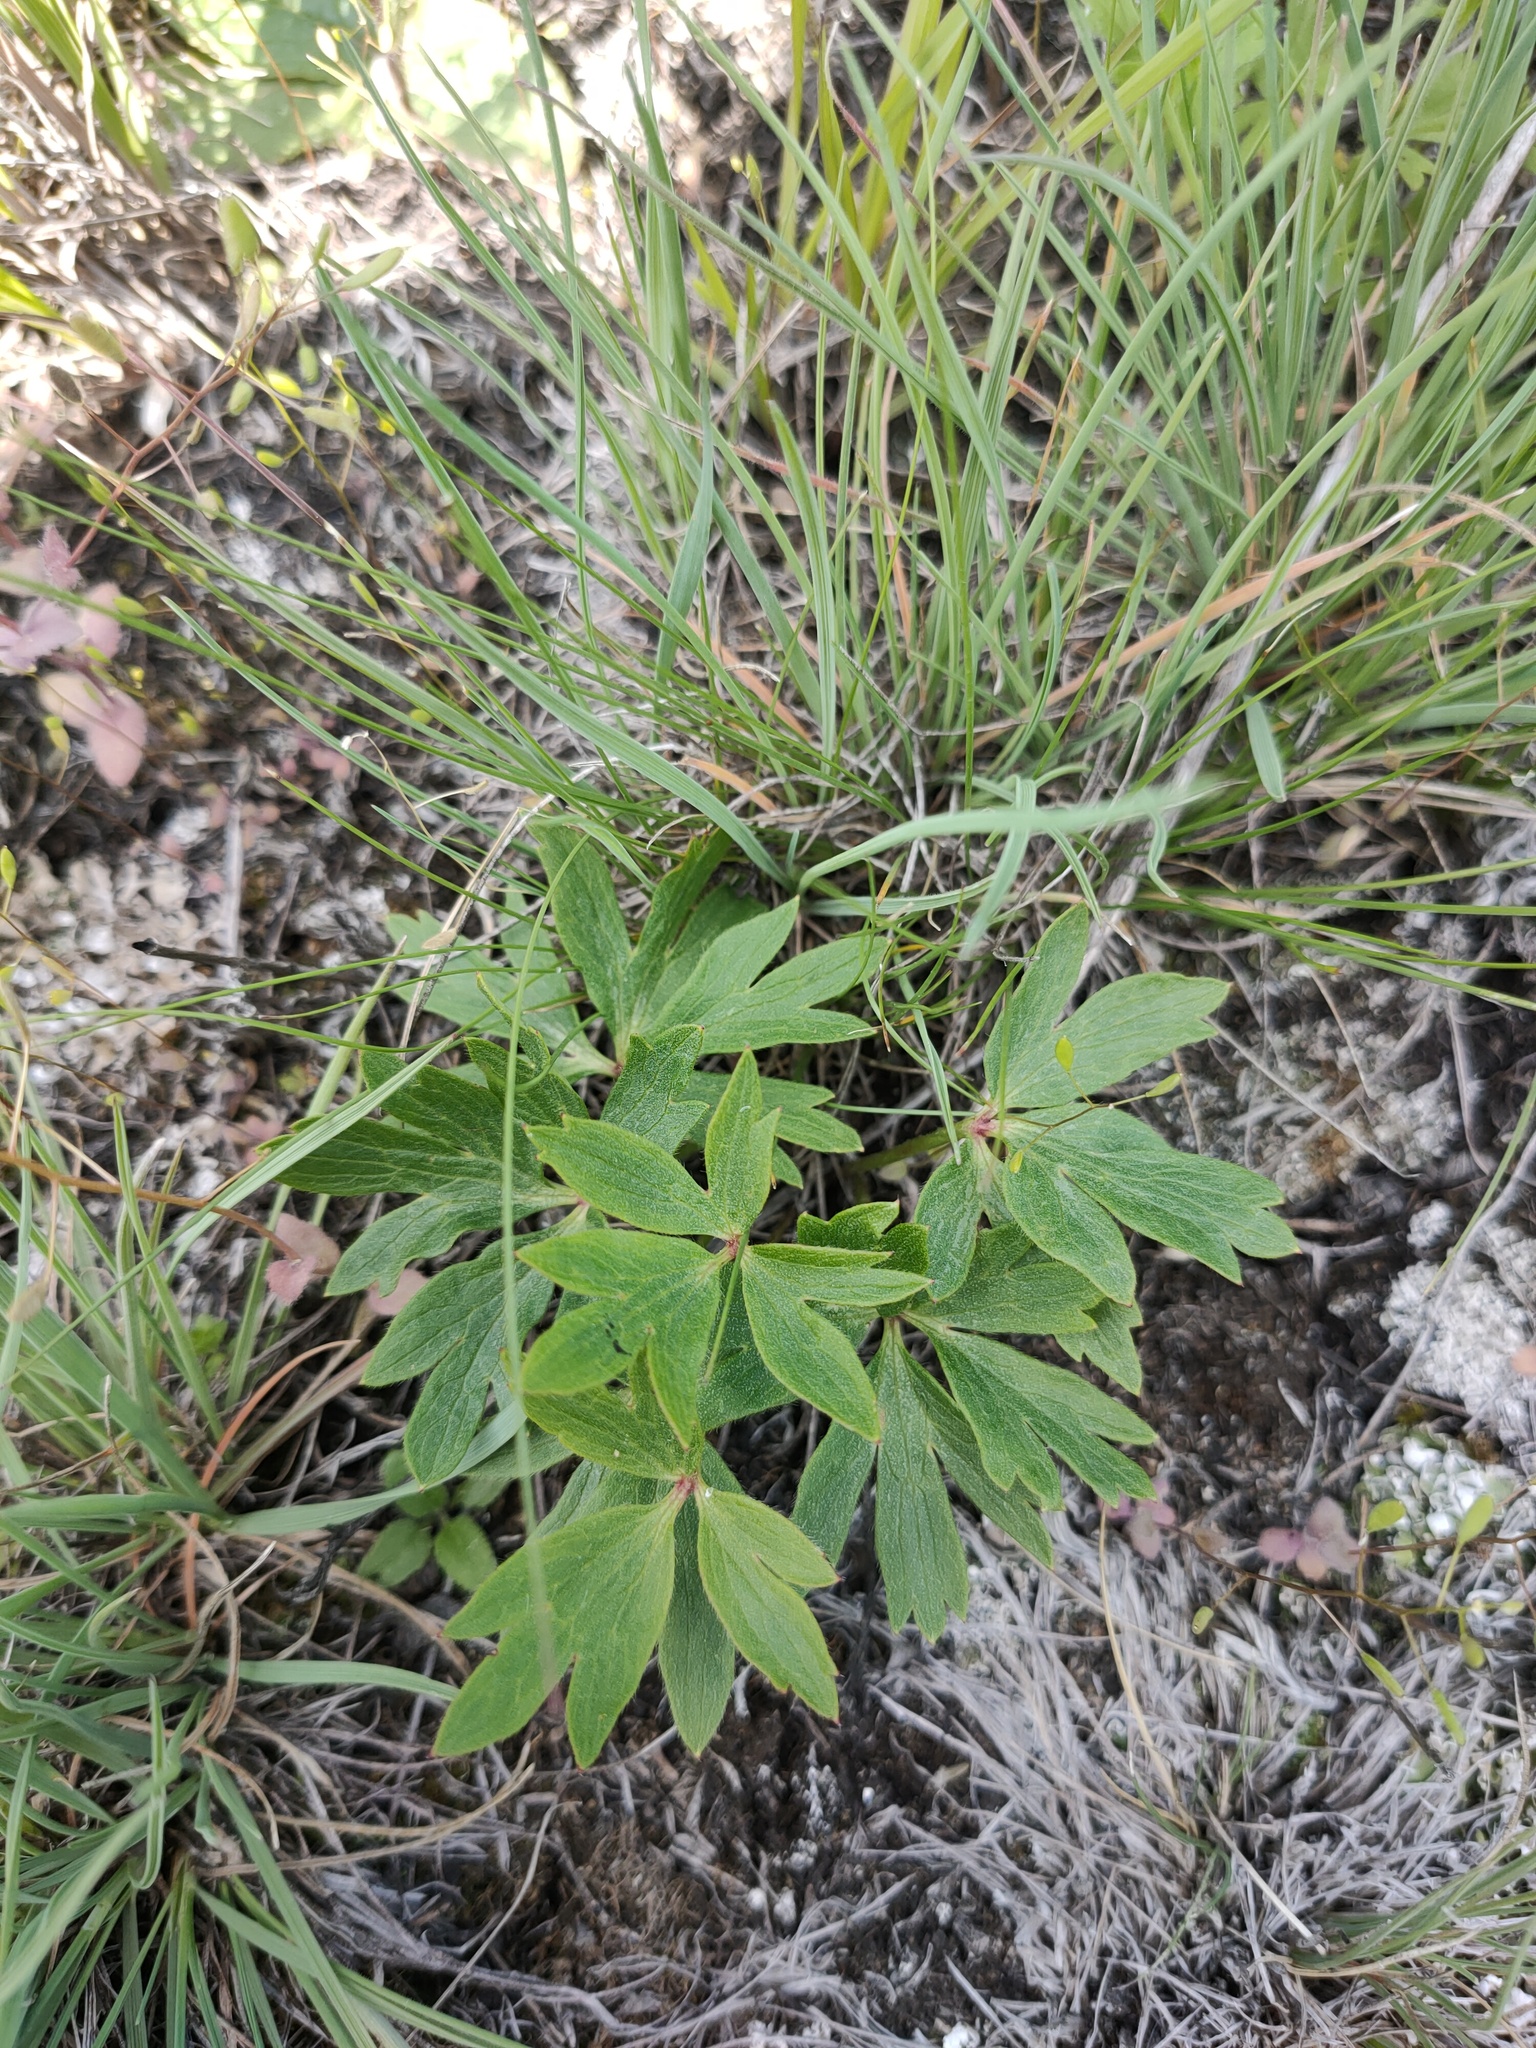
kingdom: Plantae
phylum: Tracheophyta
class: Magnoliopsida
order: Ranunculales
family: Ranunculaceae
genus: Pulsatilla
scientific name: Pulsatilla patens
